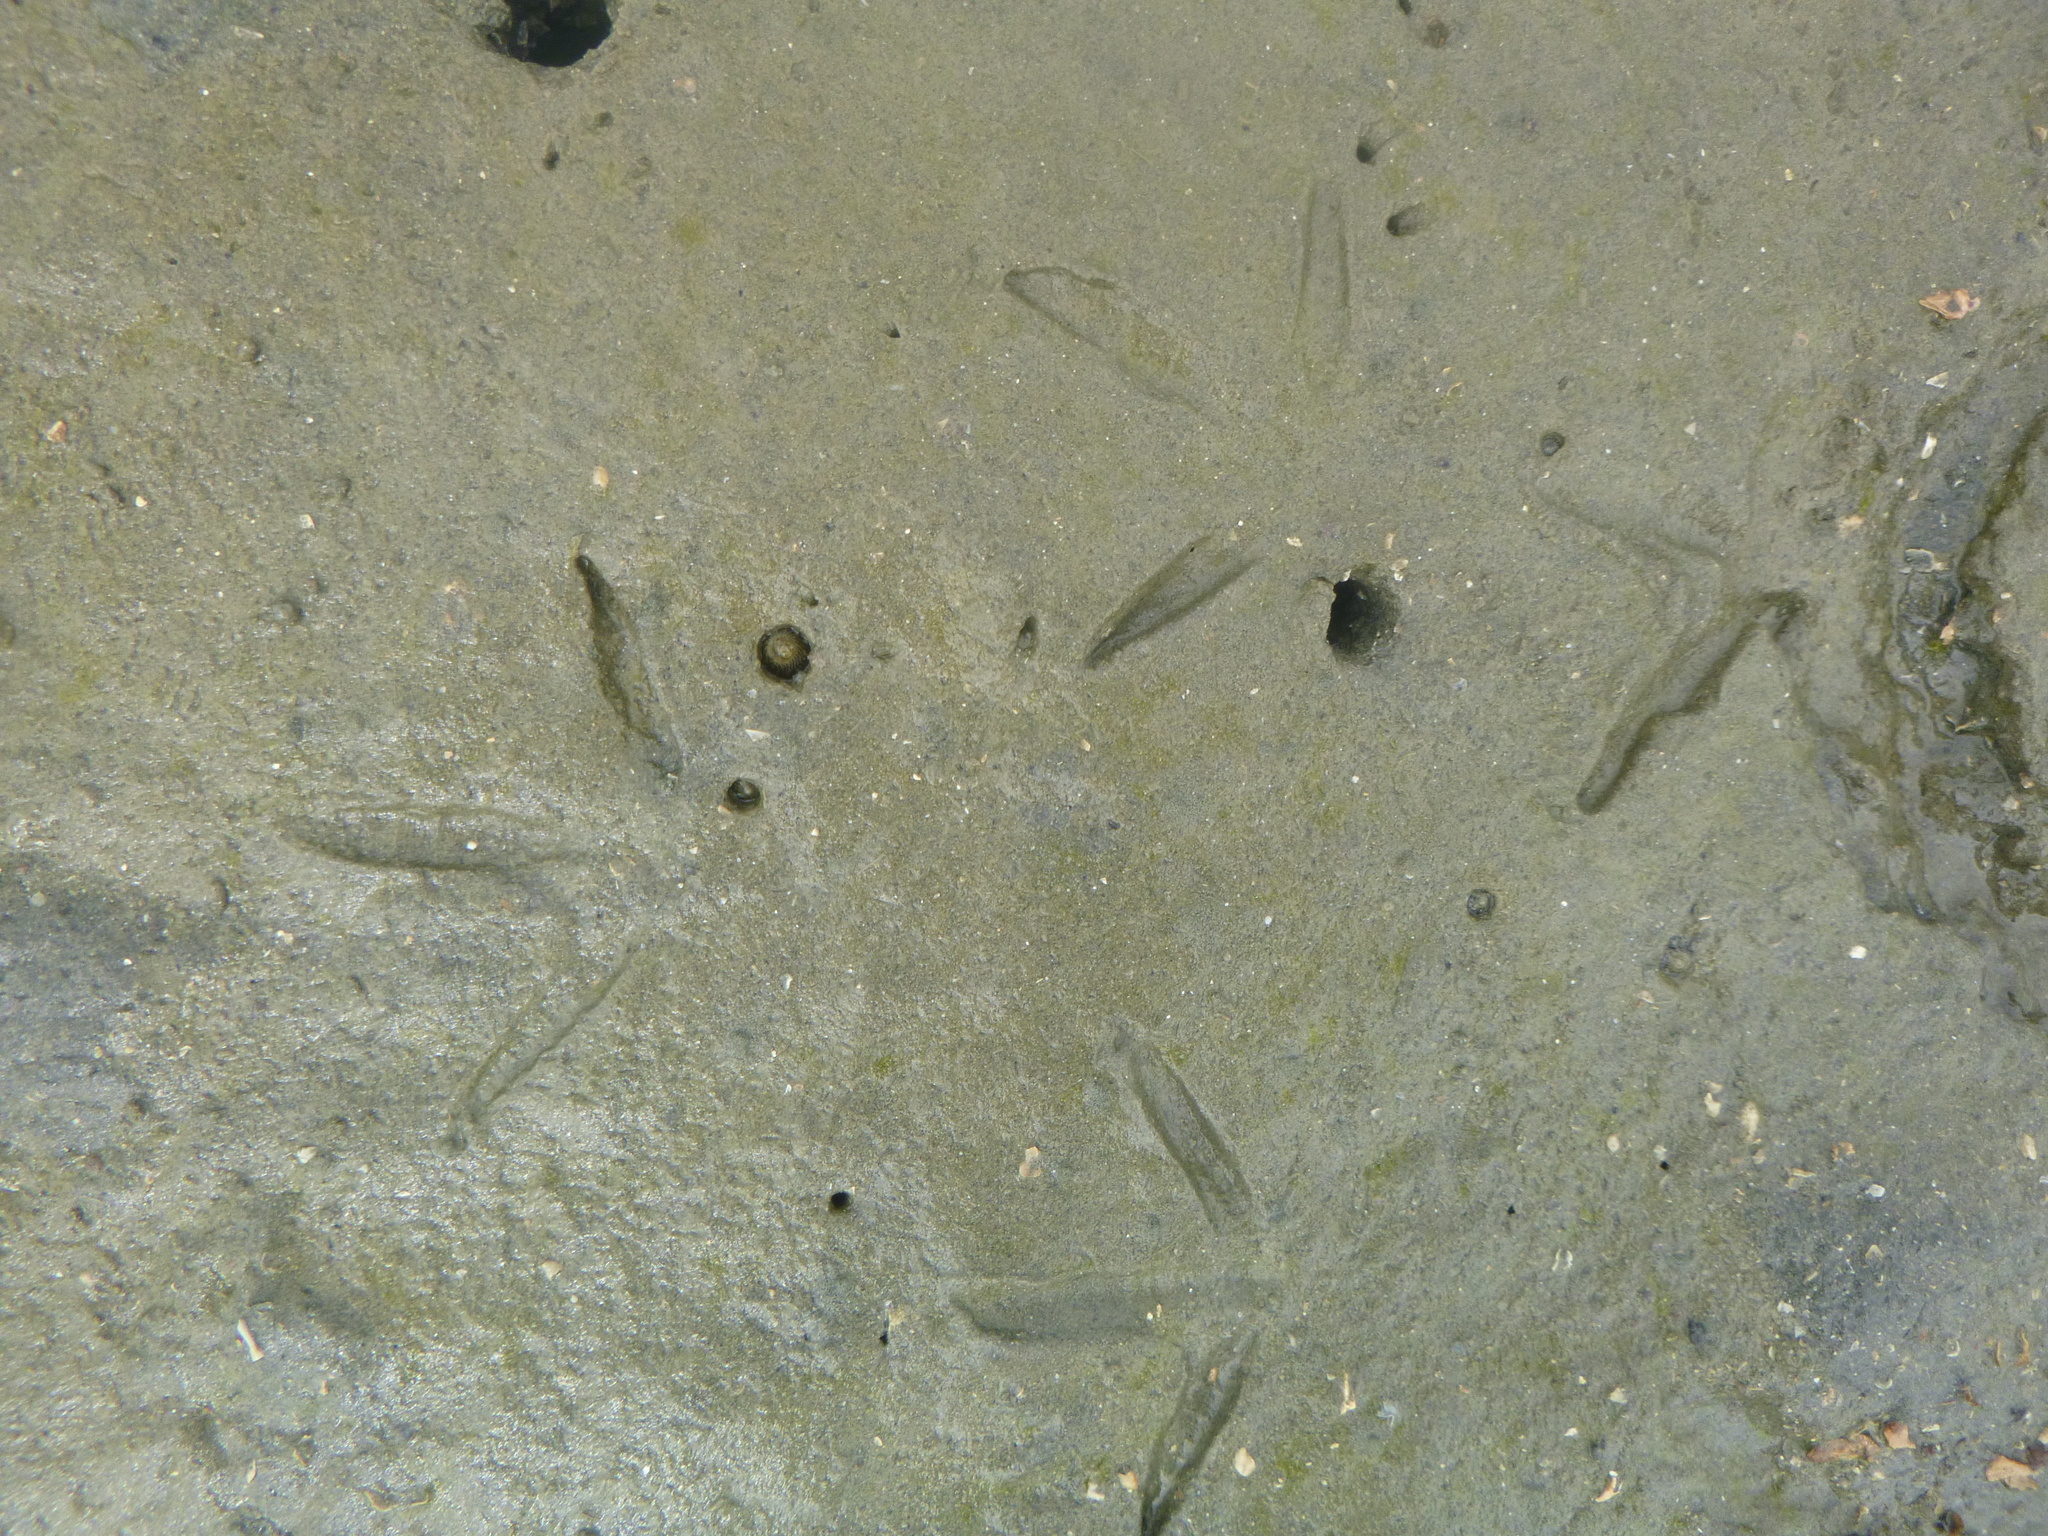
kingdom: Animalia
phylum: Chordata
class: Aves
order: Charadriiformes
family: Haematopodidae
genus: Haematopus
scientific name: Haematopus unicolor
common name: Variable oystercatcher
